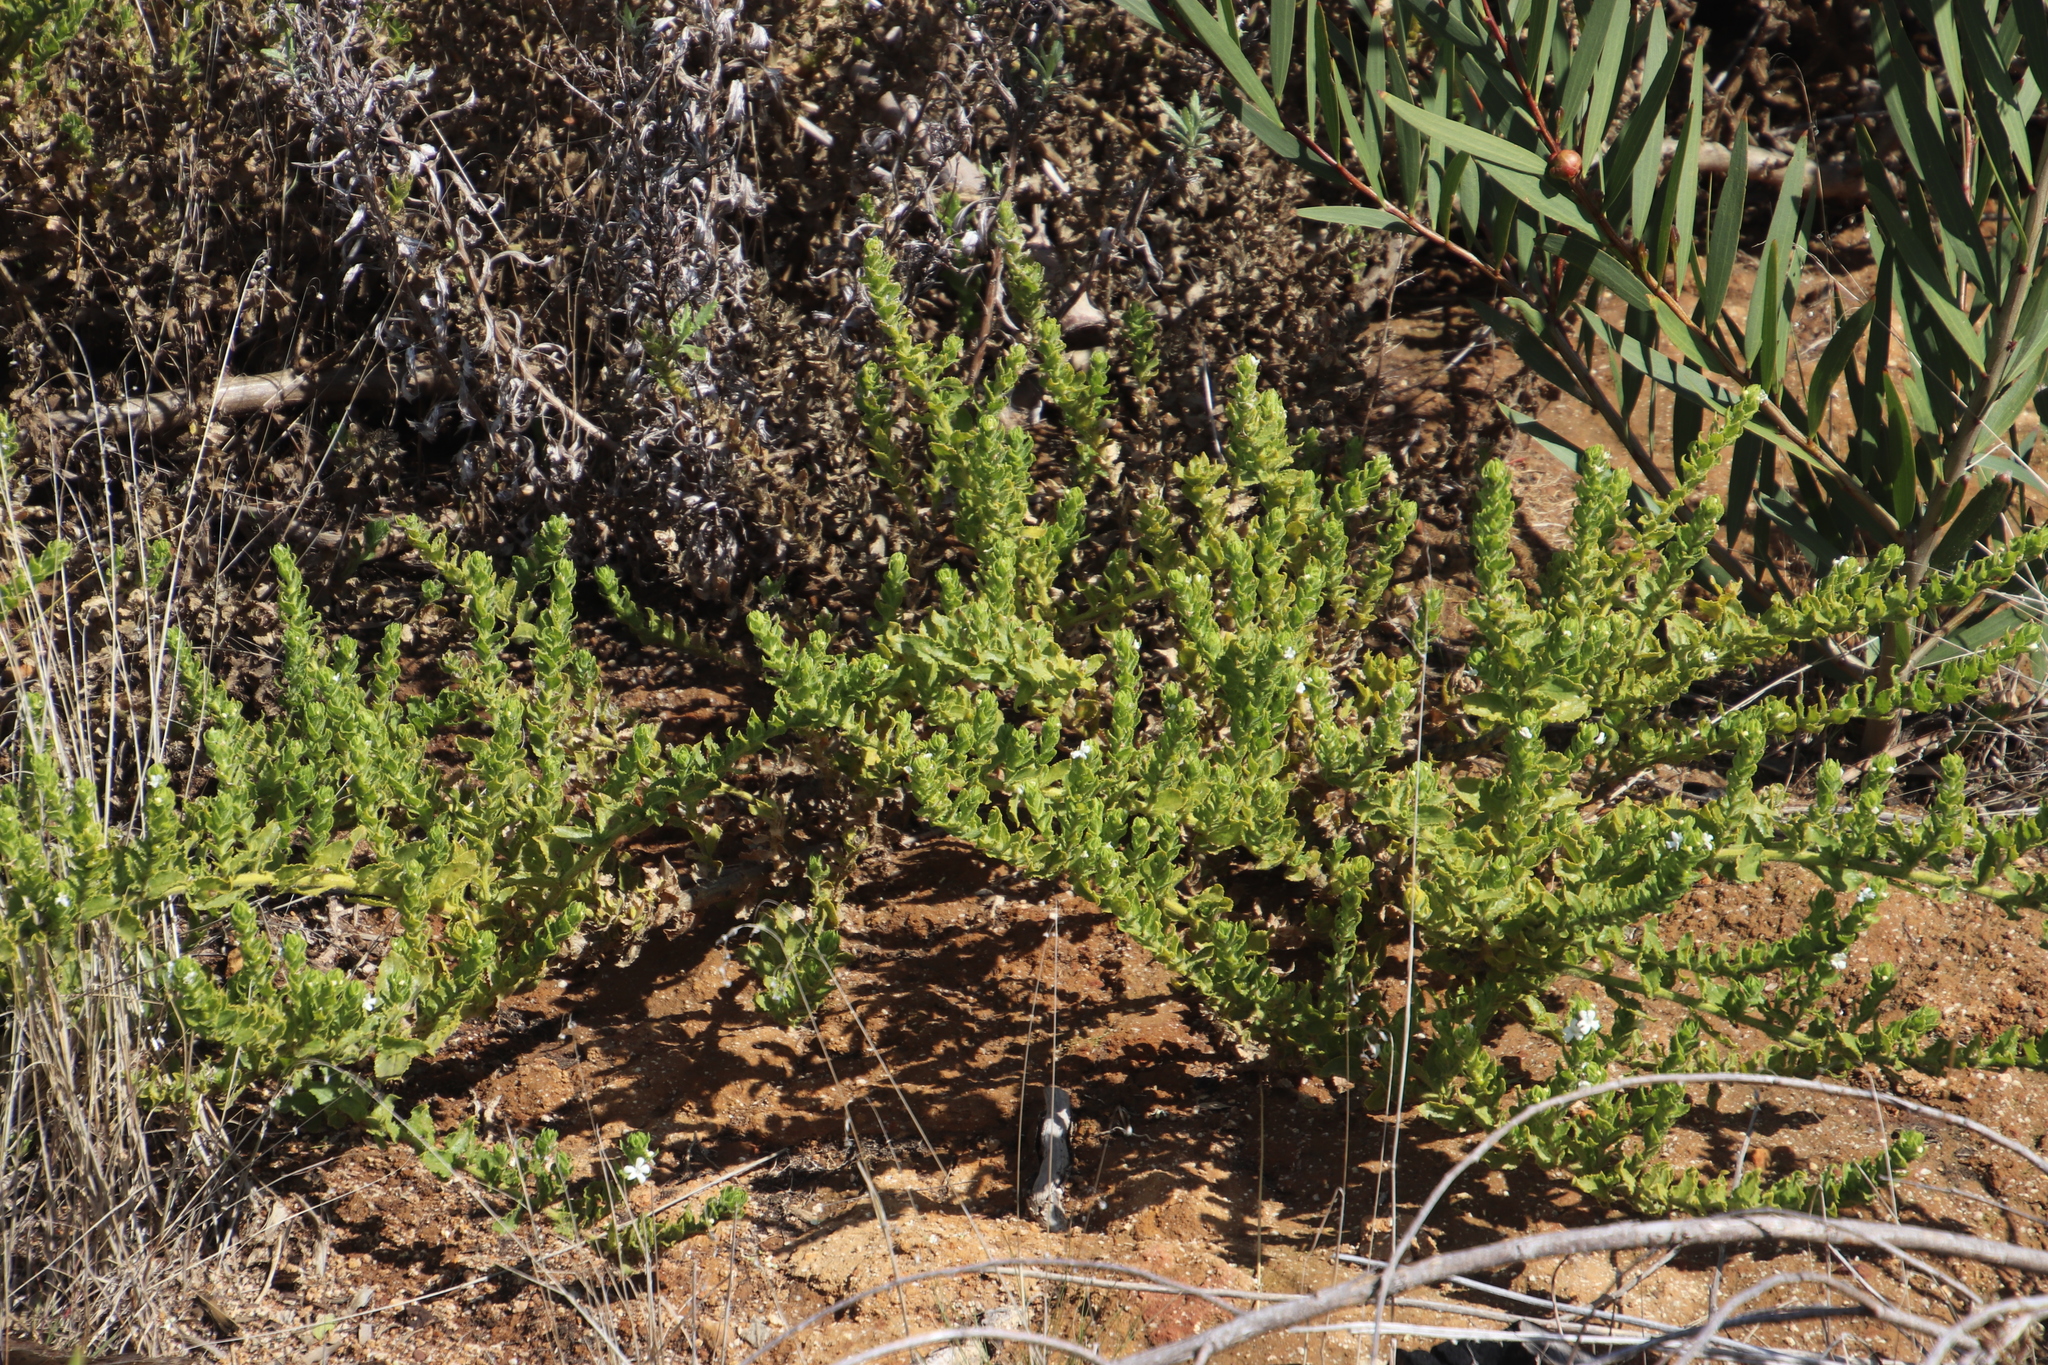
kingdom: Plantae
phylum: Tracheophyta
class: Magnoliopsida
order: Lamiales
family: Scrophulariaceae
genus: Oftia
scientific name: Oftia africana
